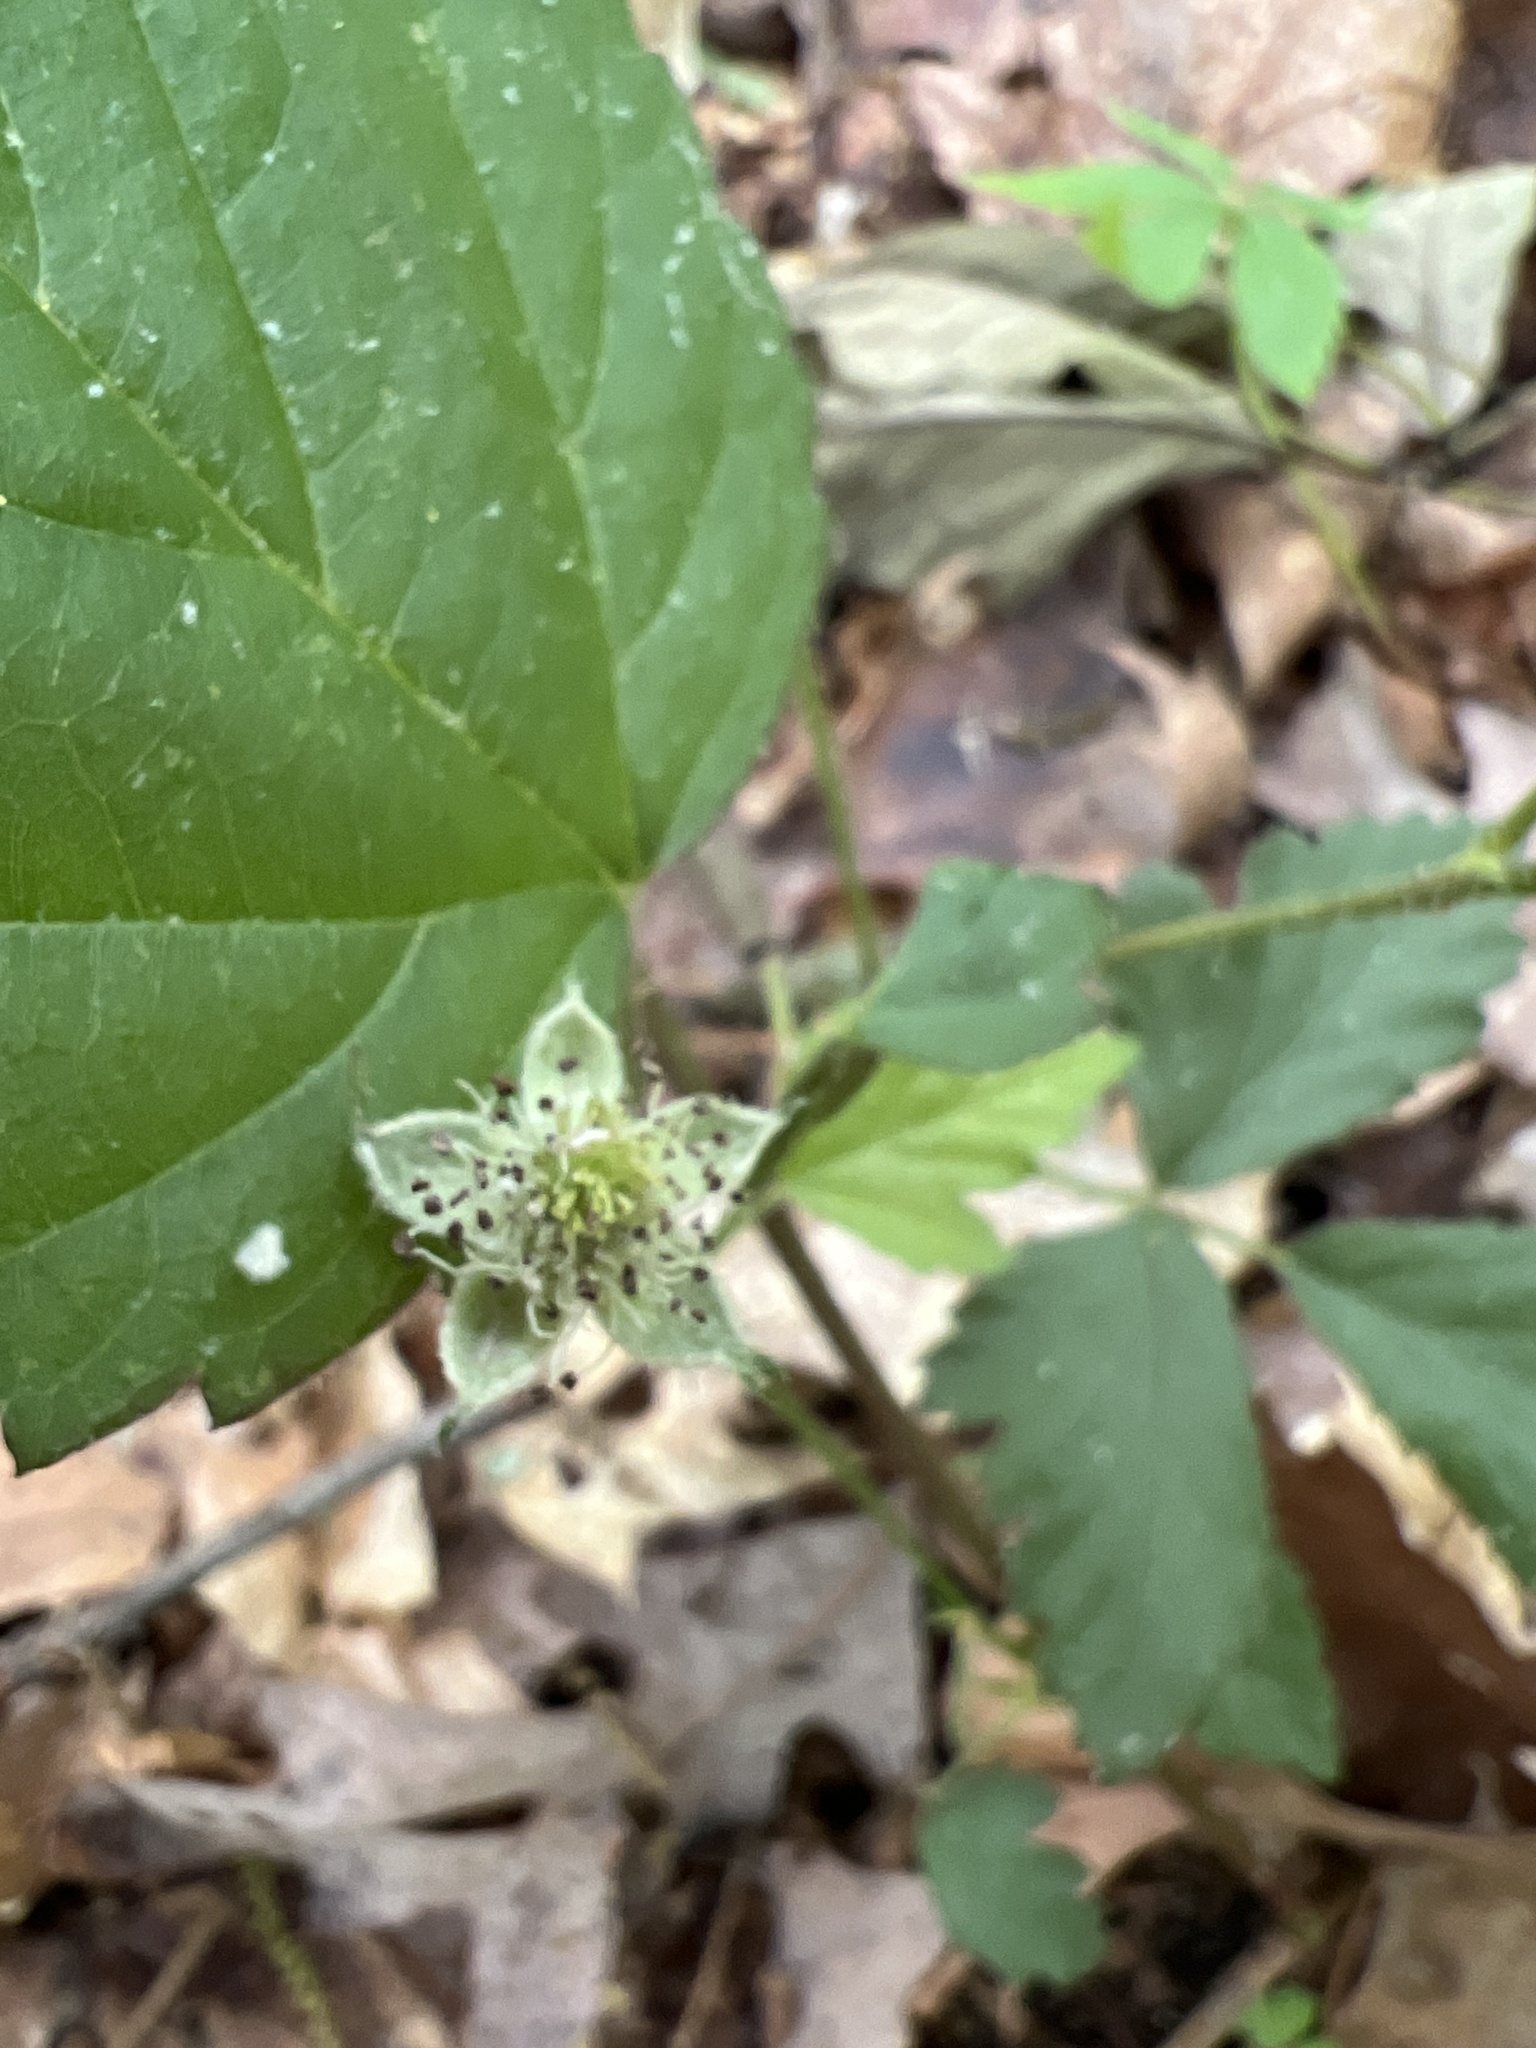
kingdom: Plantae
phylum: Tracheophyta
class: Magnoliopsida
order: Rosales
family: Rosaceae
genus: Rubus
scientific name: Rubus flagellaris
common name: American dewberry
